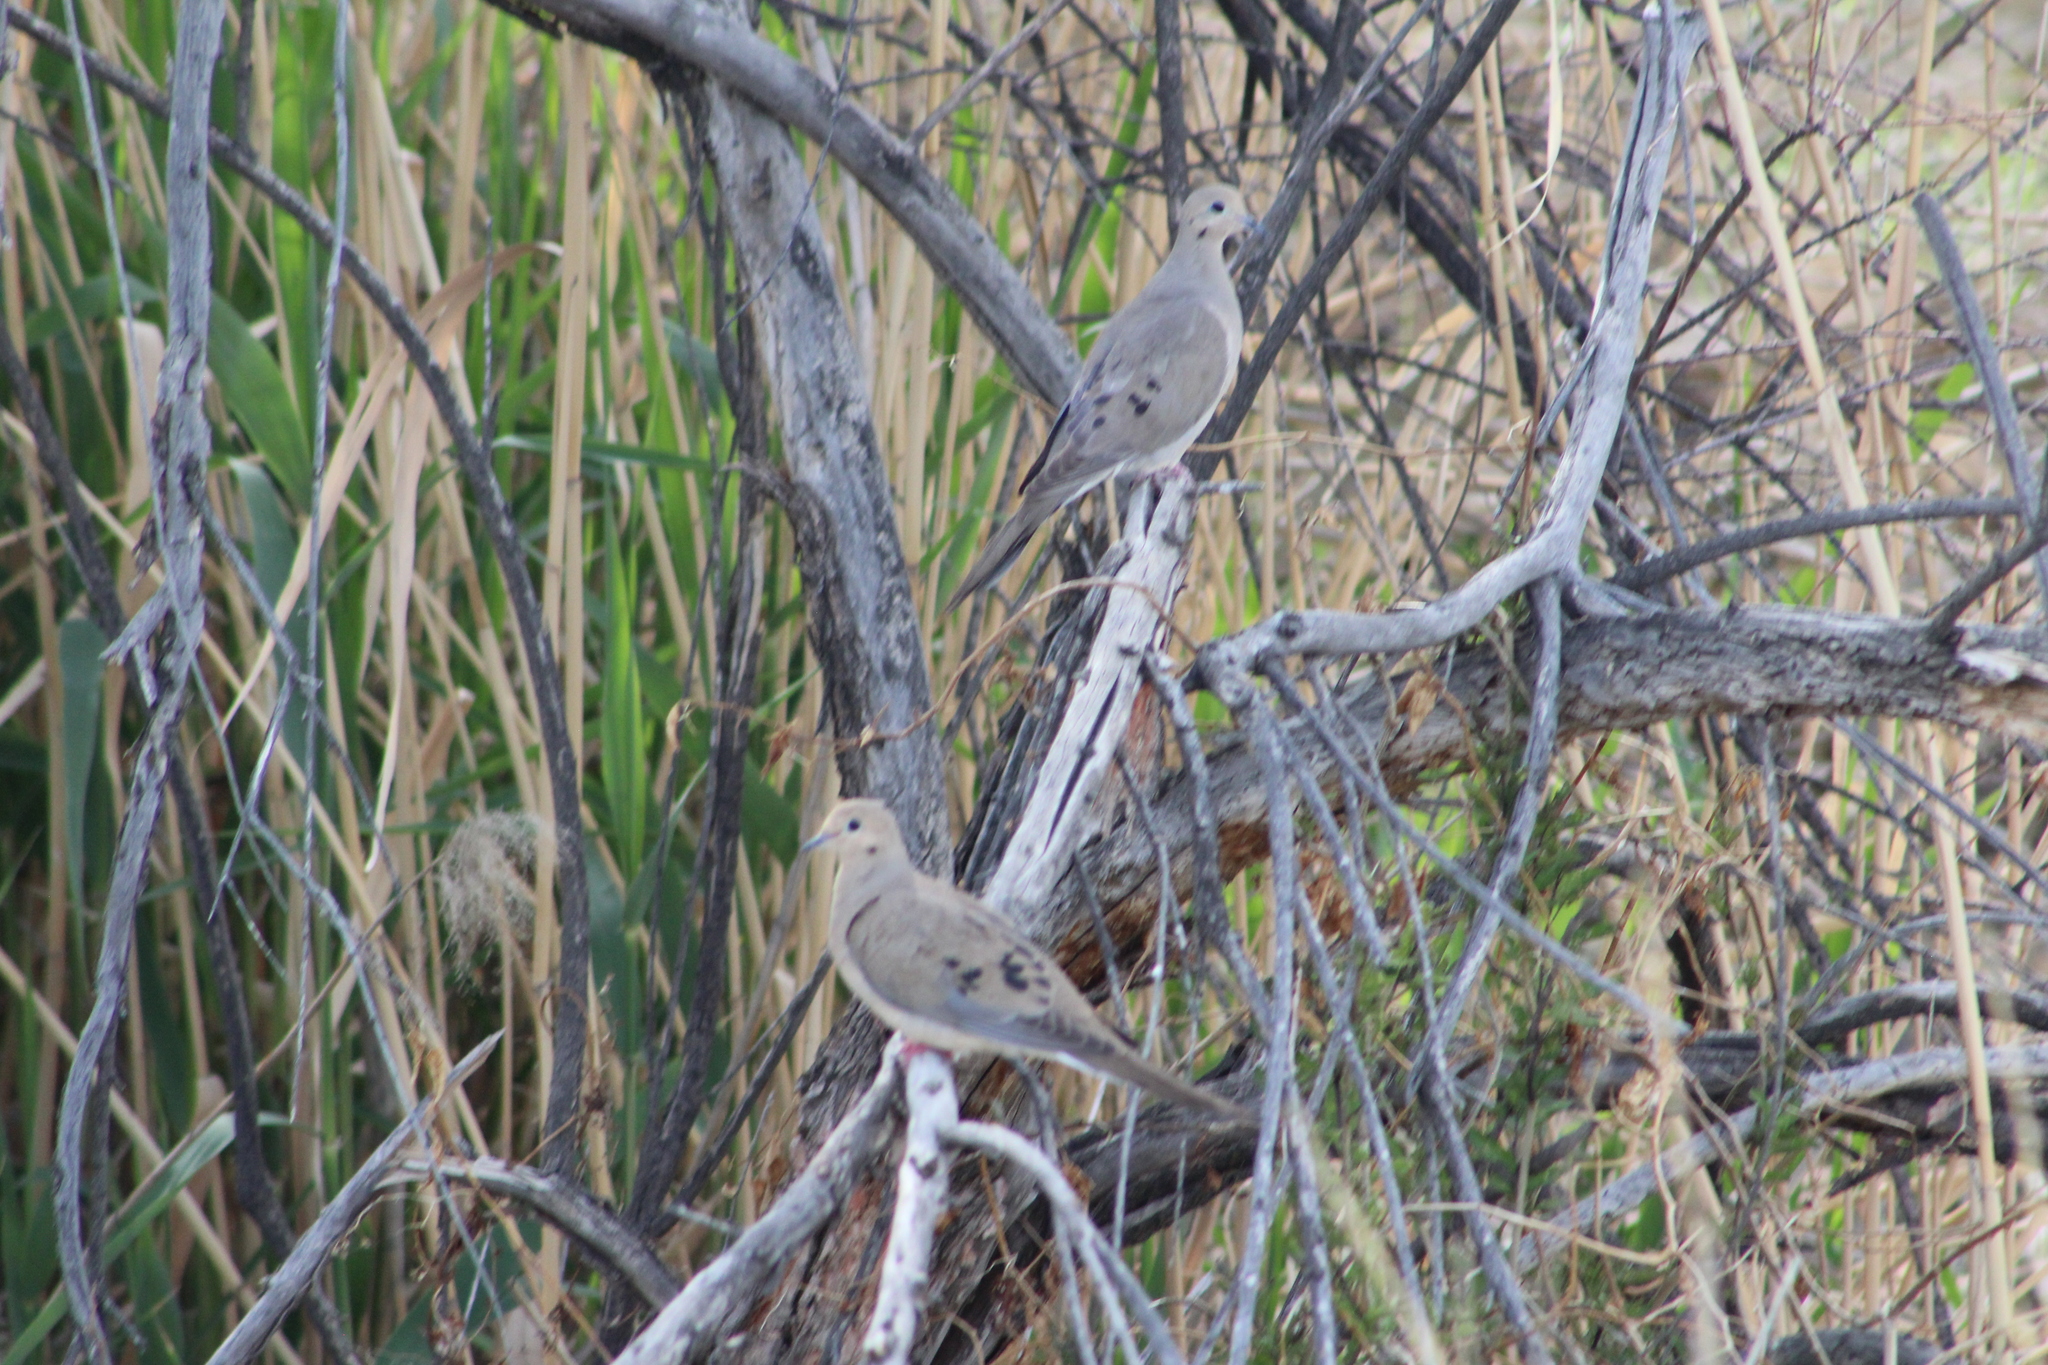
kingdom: Animalia
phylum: Chordata
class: Aves
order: Columbiformes
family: Columbidae
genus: Zenaida
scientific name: Zenaida macroura
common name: Mourning dove
